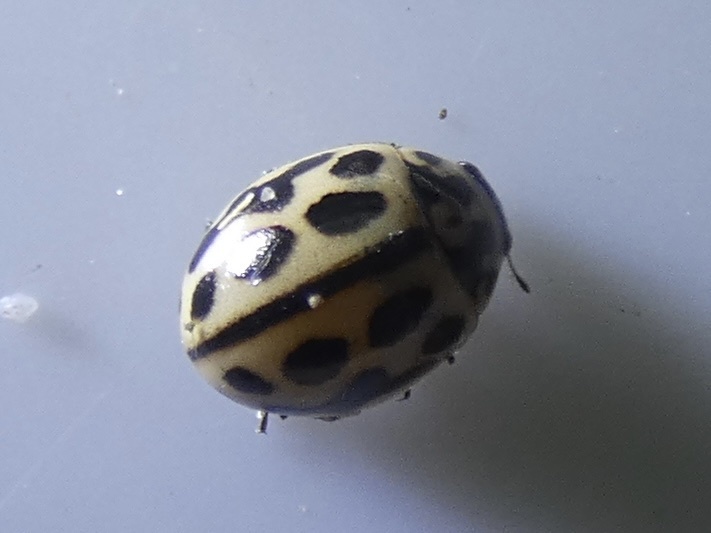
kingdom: Animalia
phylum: Arthropoda
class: Insecta
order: Coleoptera
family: Coccinellidae
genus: Tytthaspis
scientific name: Tytthaspis sedecimpunctata
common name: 16-spot ladybird
